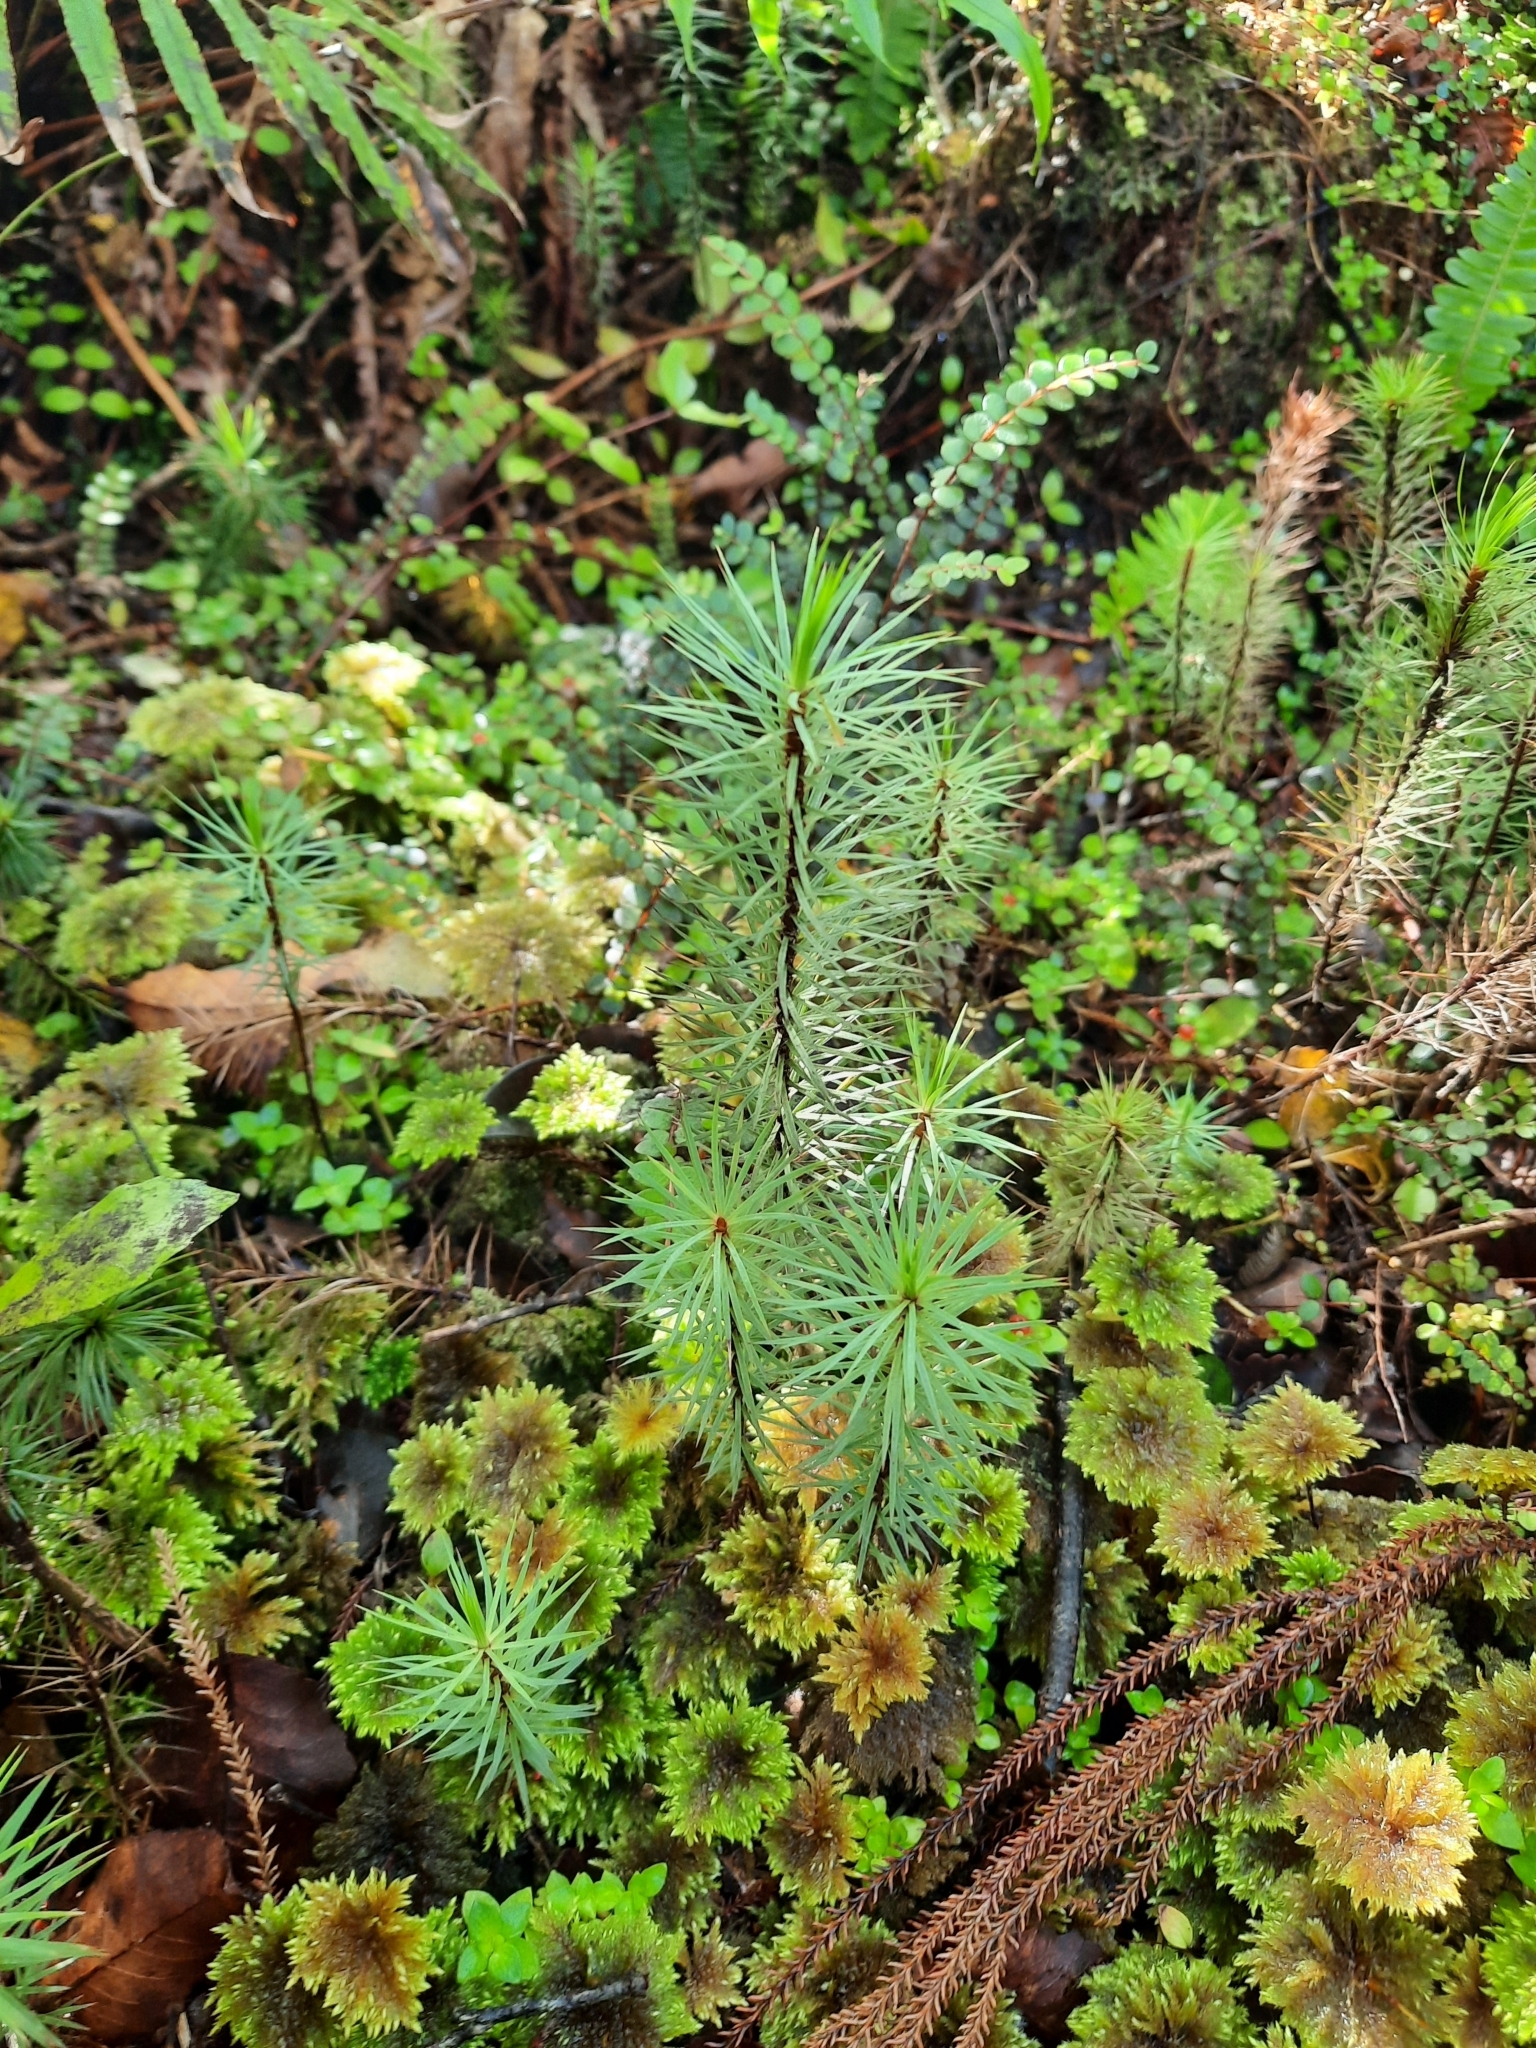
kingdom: Plantae
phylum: Bryophyta
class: Polytrichopsida
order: Polytrichales
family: Polytrichaceae
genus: Dawsonia
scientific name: Dawsonia superba
